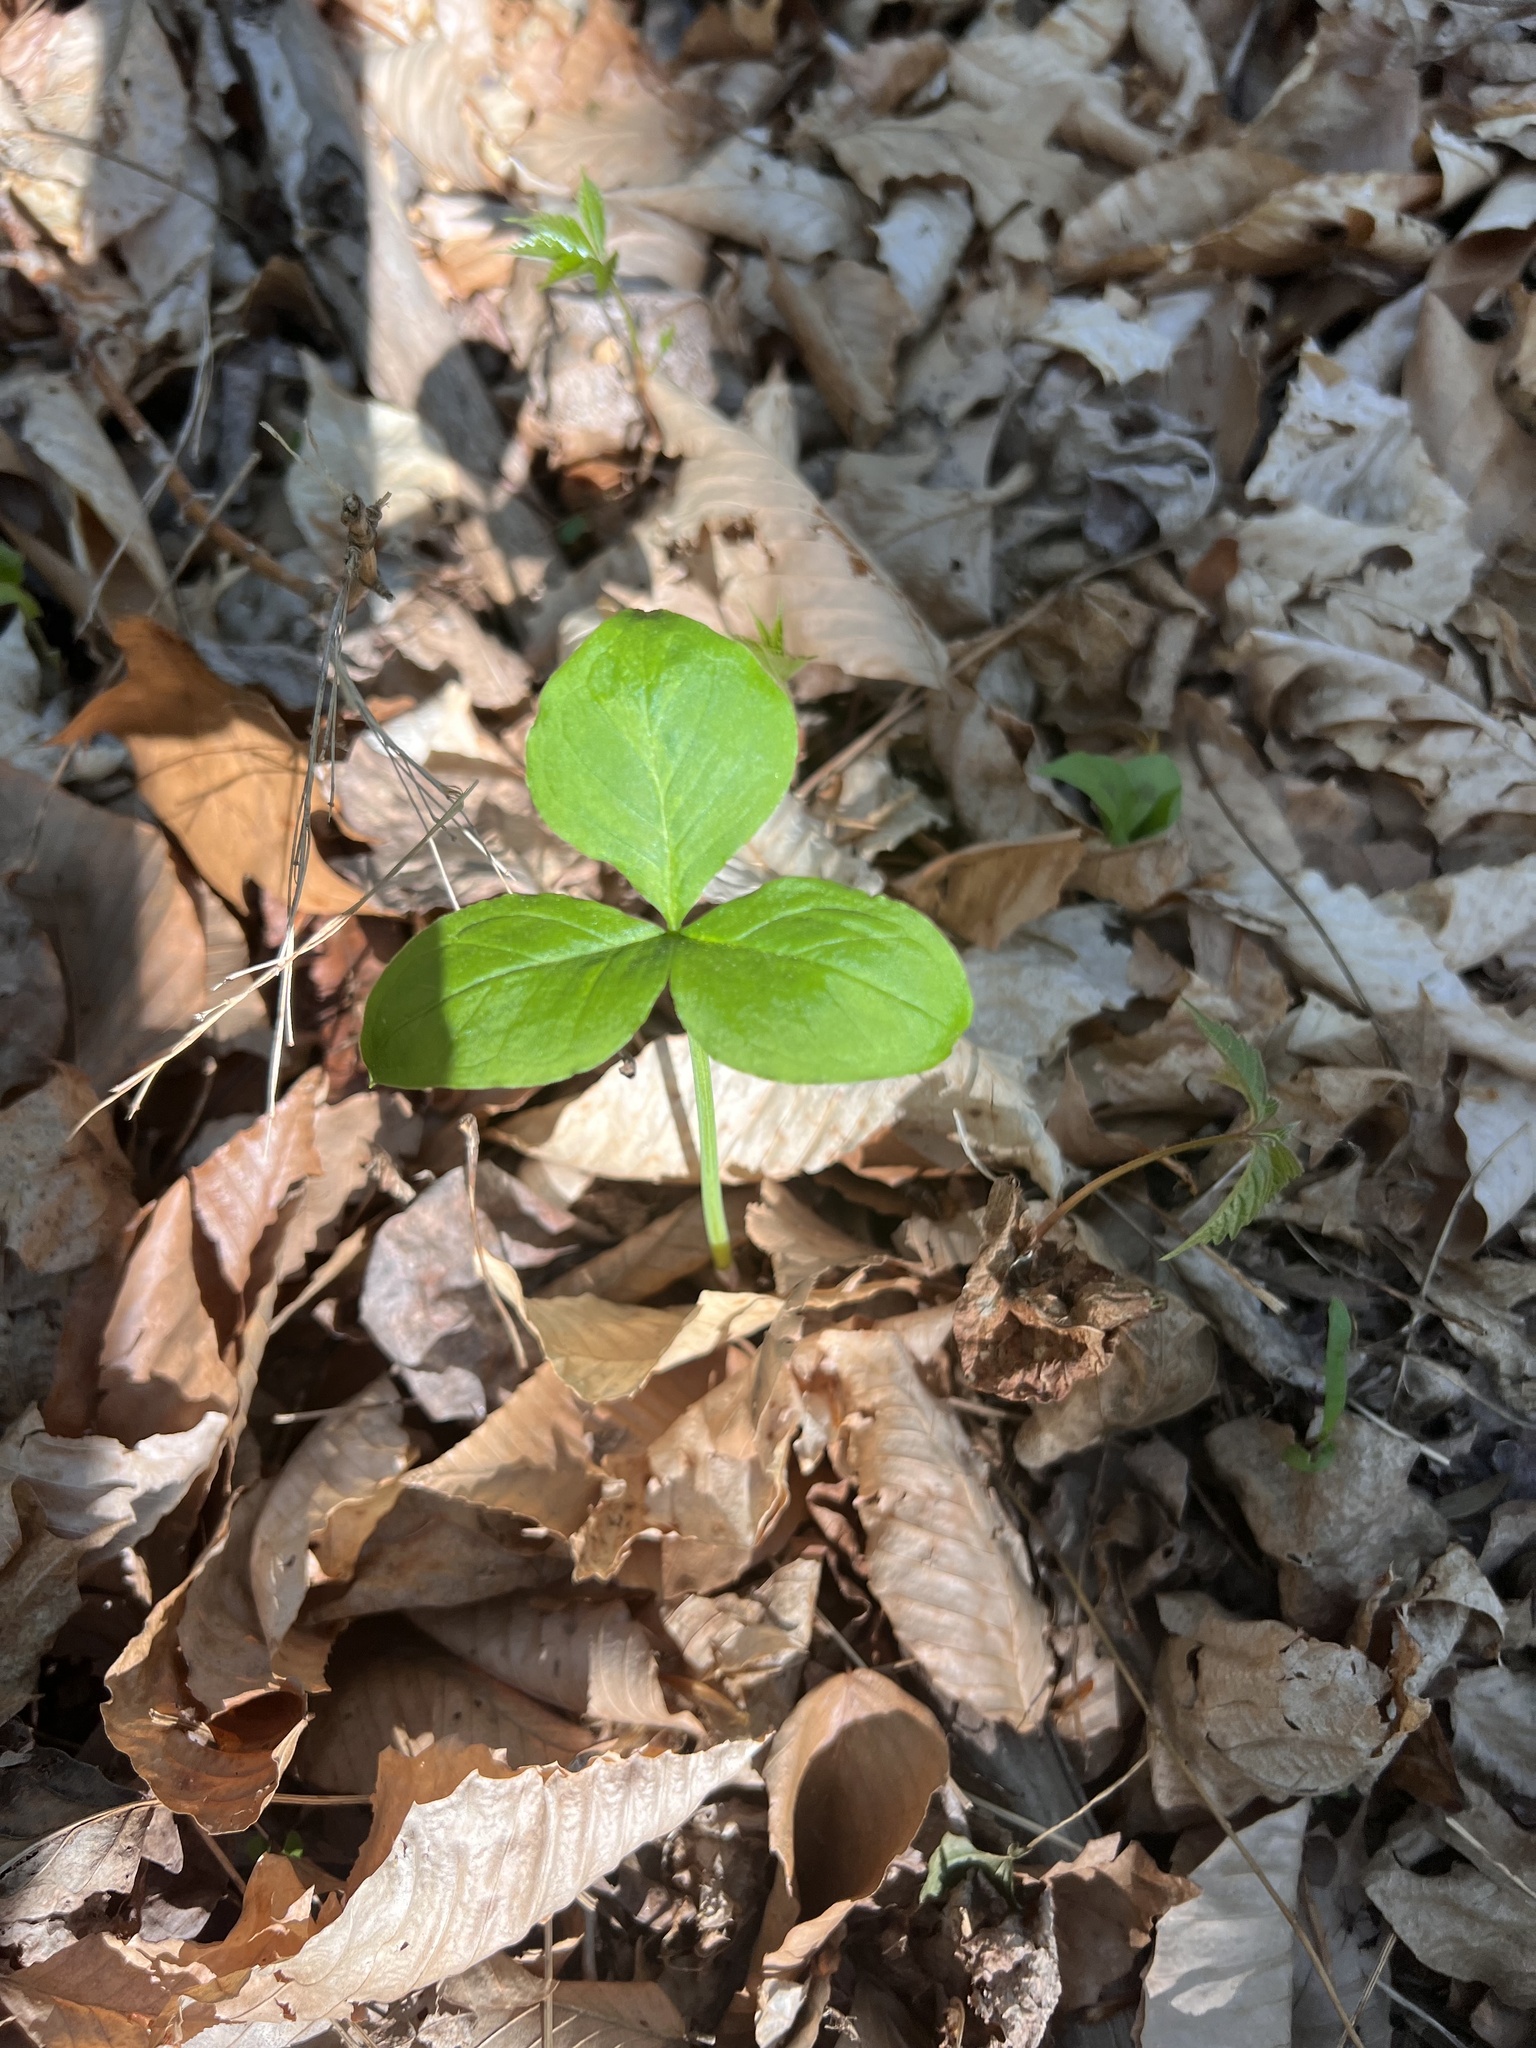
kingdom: Plantae
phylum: Tracheophyta
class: Liliopsida
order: Alismatales
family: Araceae
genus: Arisaema
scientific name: Arisaema triphyllum
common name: Jack-in-the-pulpit
